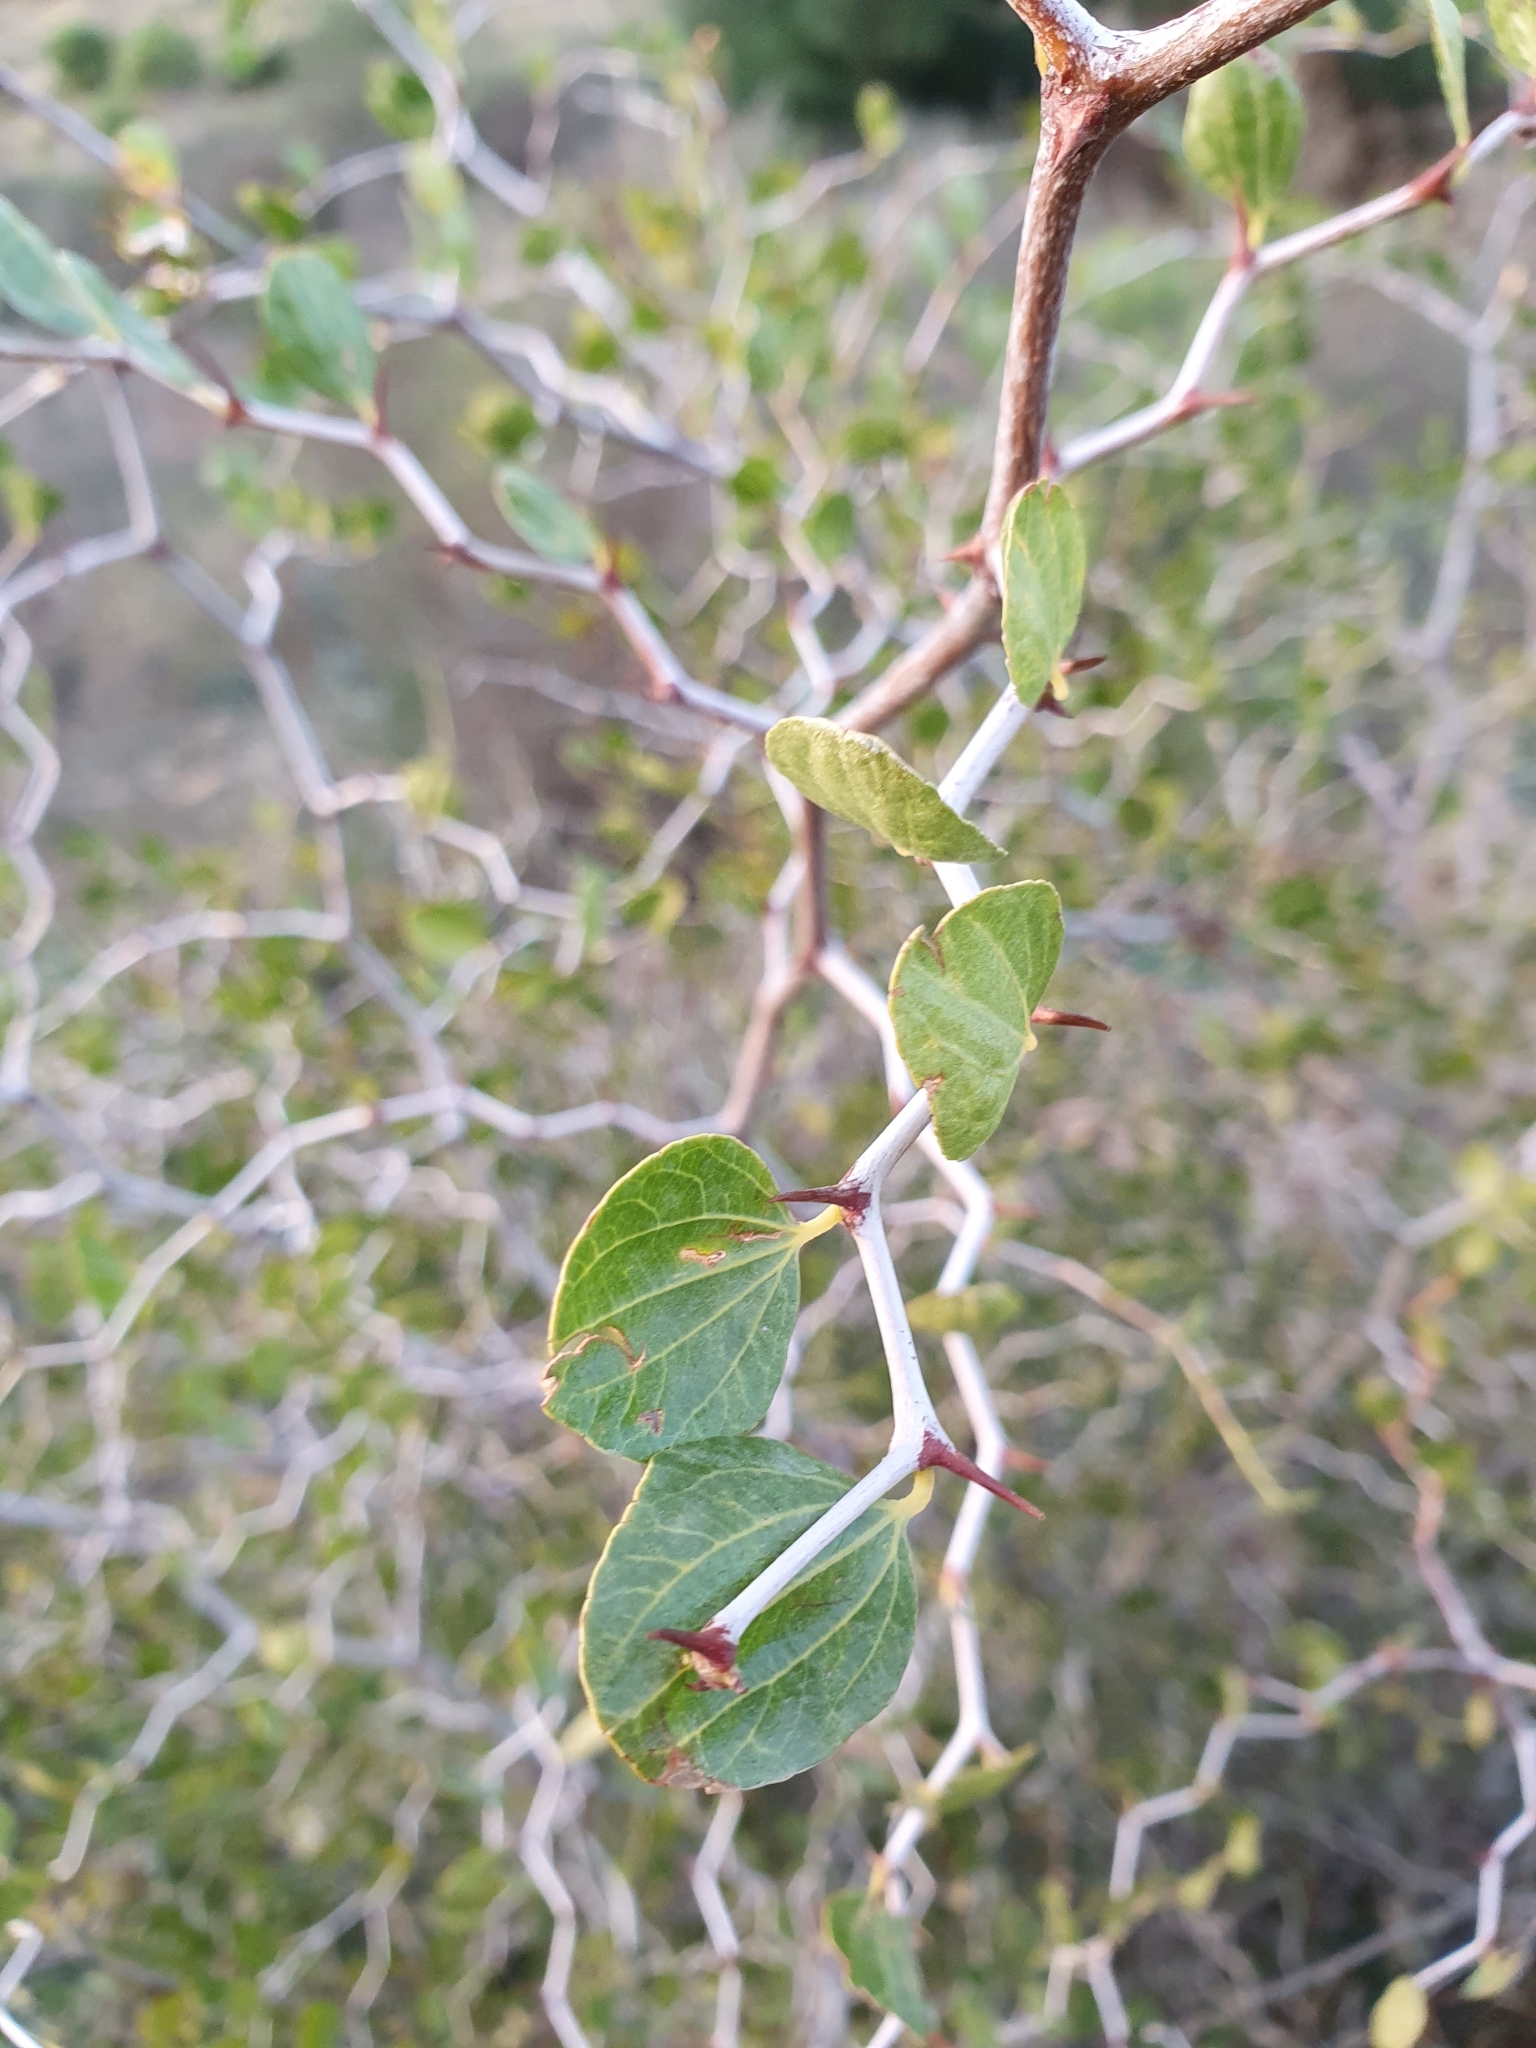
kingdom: Plantae
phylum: Tracheophyta
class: Magnoliopsida
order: Rosales
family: Rhamnaceae
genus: Ziziphus
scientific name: Ziziphus lotus
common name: Lotus
